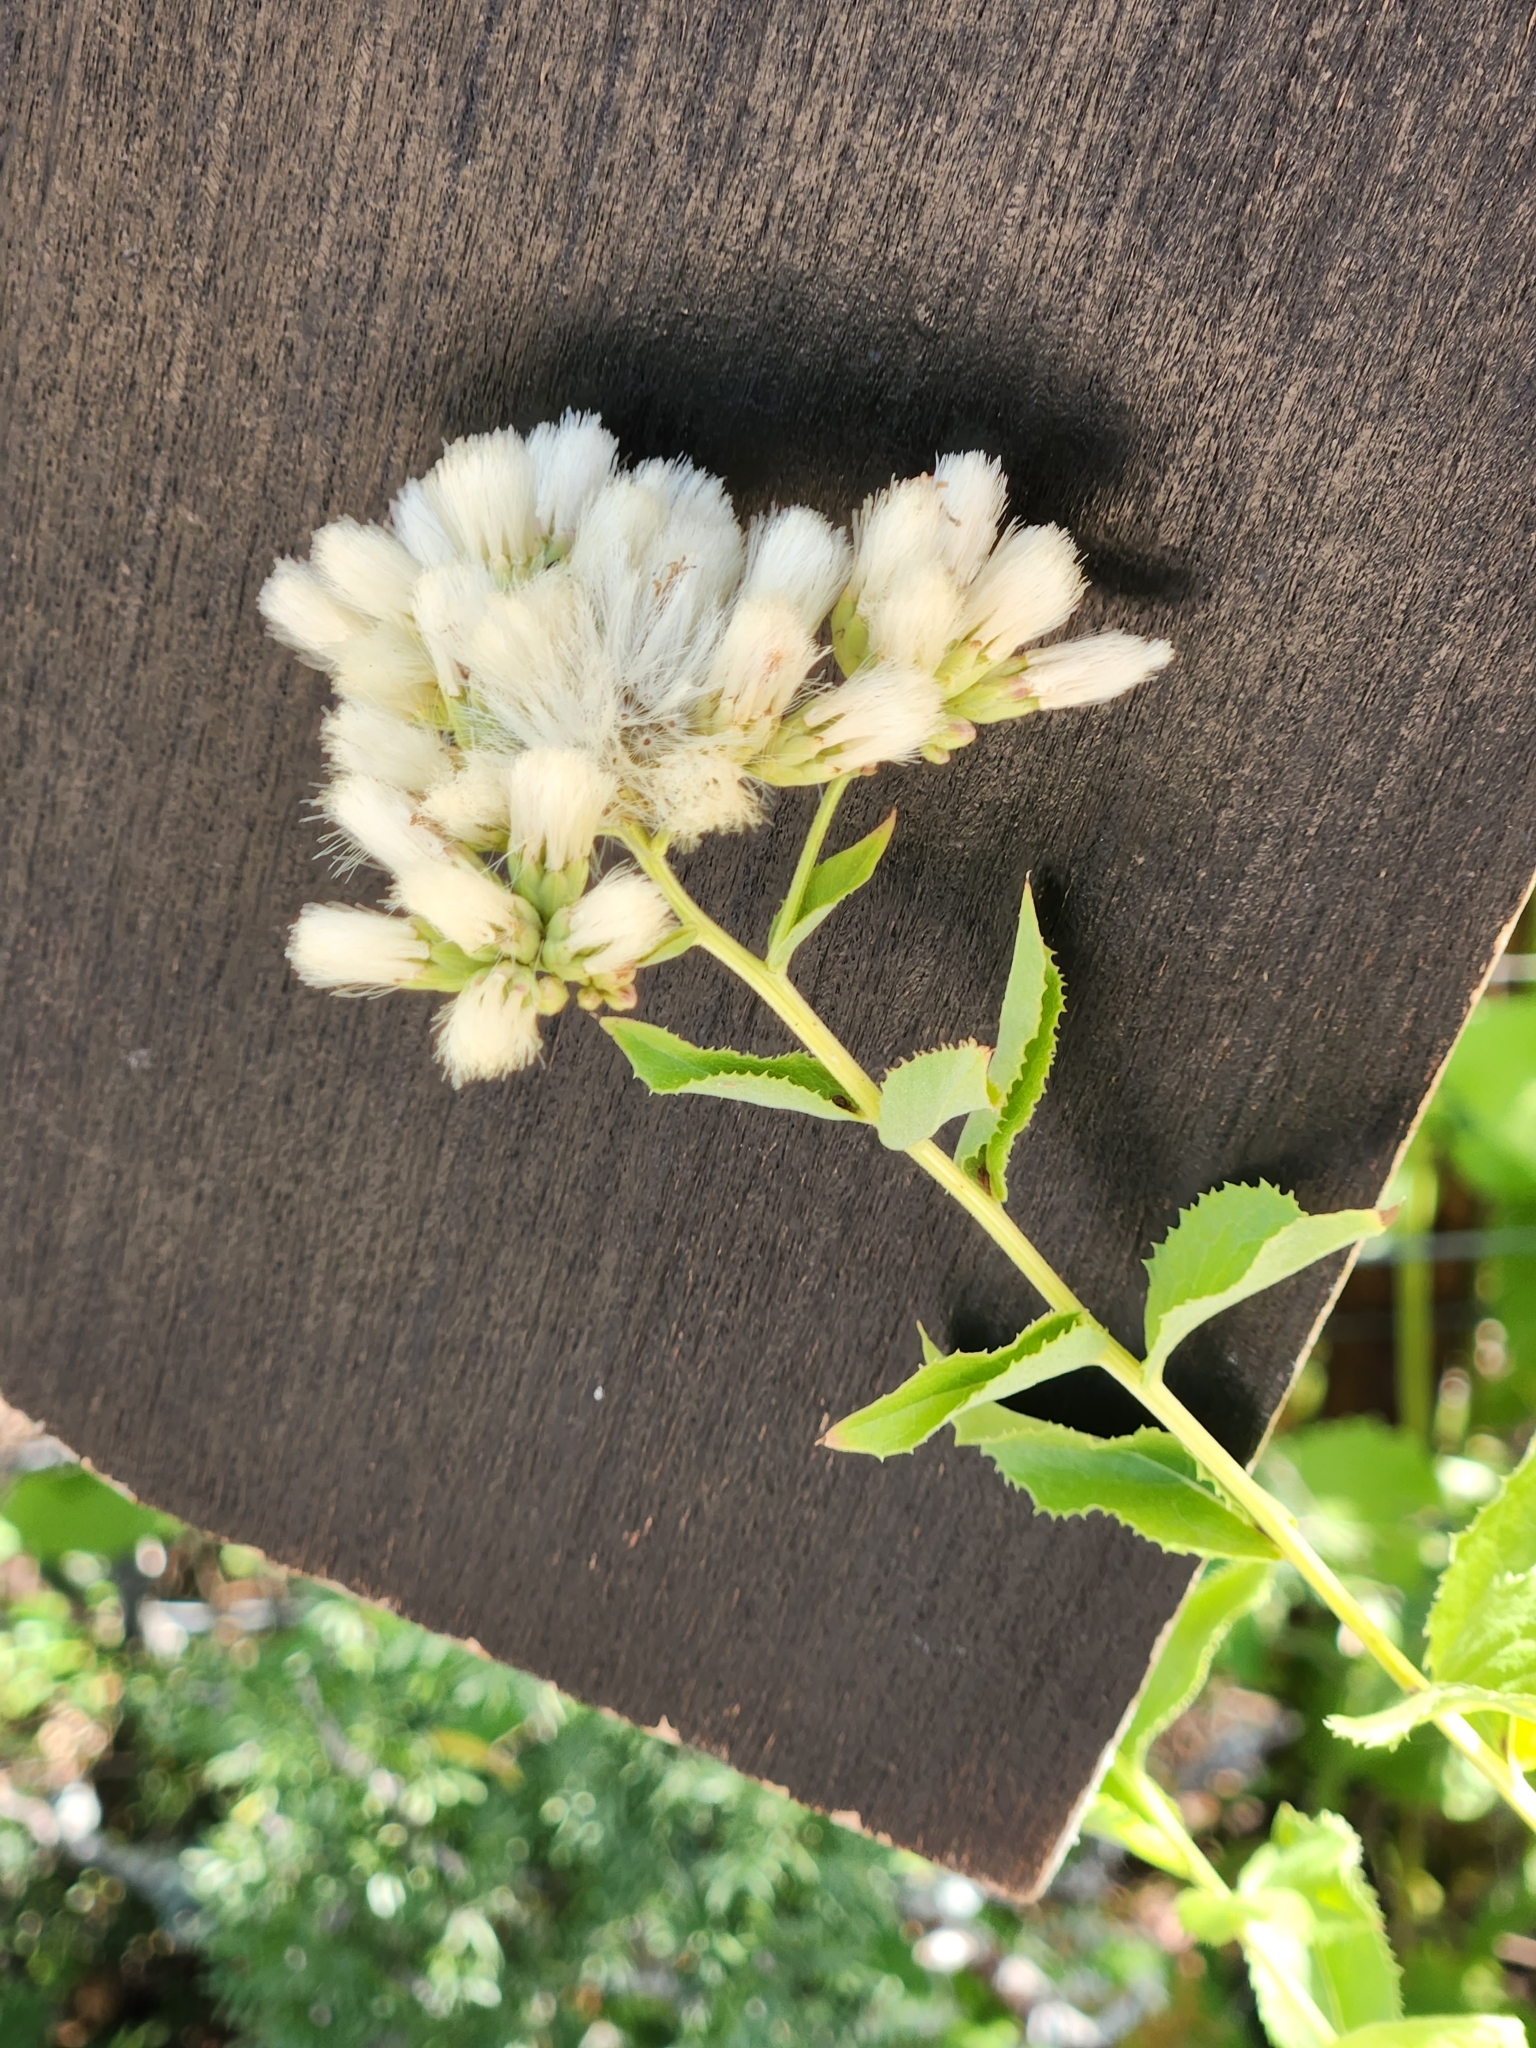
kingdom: Plantae
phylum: Tracheophyta
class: Magnoliopsida
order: Asterales
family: Asteraceae
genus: Acourtia
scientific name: Acourtia wrightii
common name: Brownfoot
